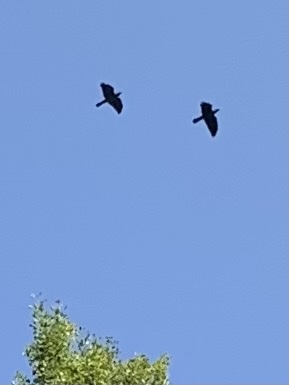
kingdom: Animalia
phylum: Chordata
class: Aves
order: Passeriformes
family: Corvidae
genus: Coloeus
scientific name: Coloeus monedula
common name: Western jackdaw
